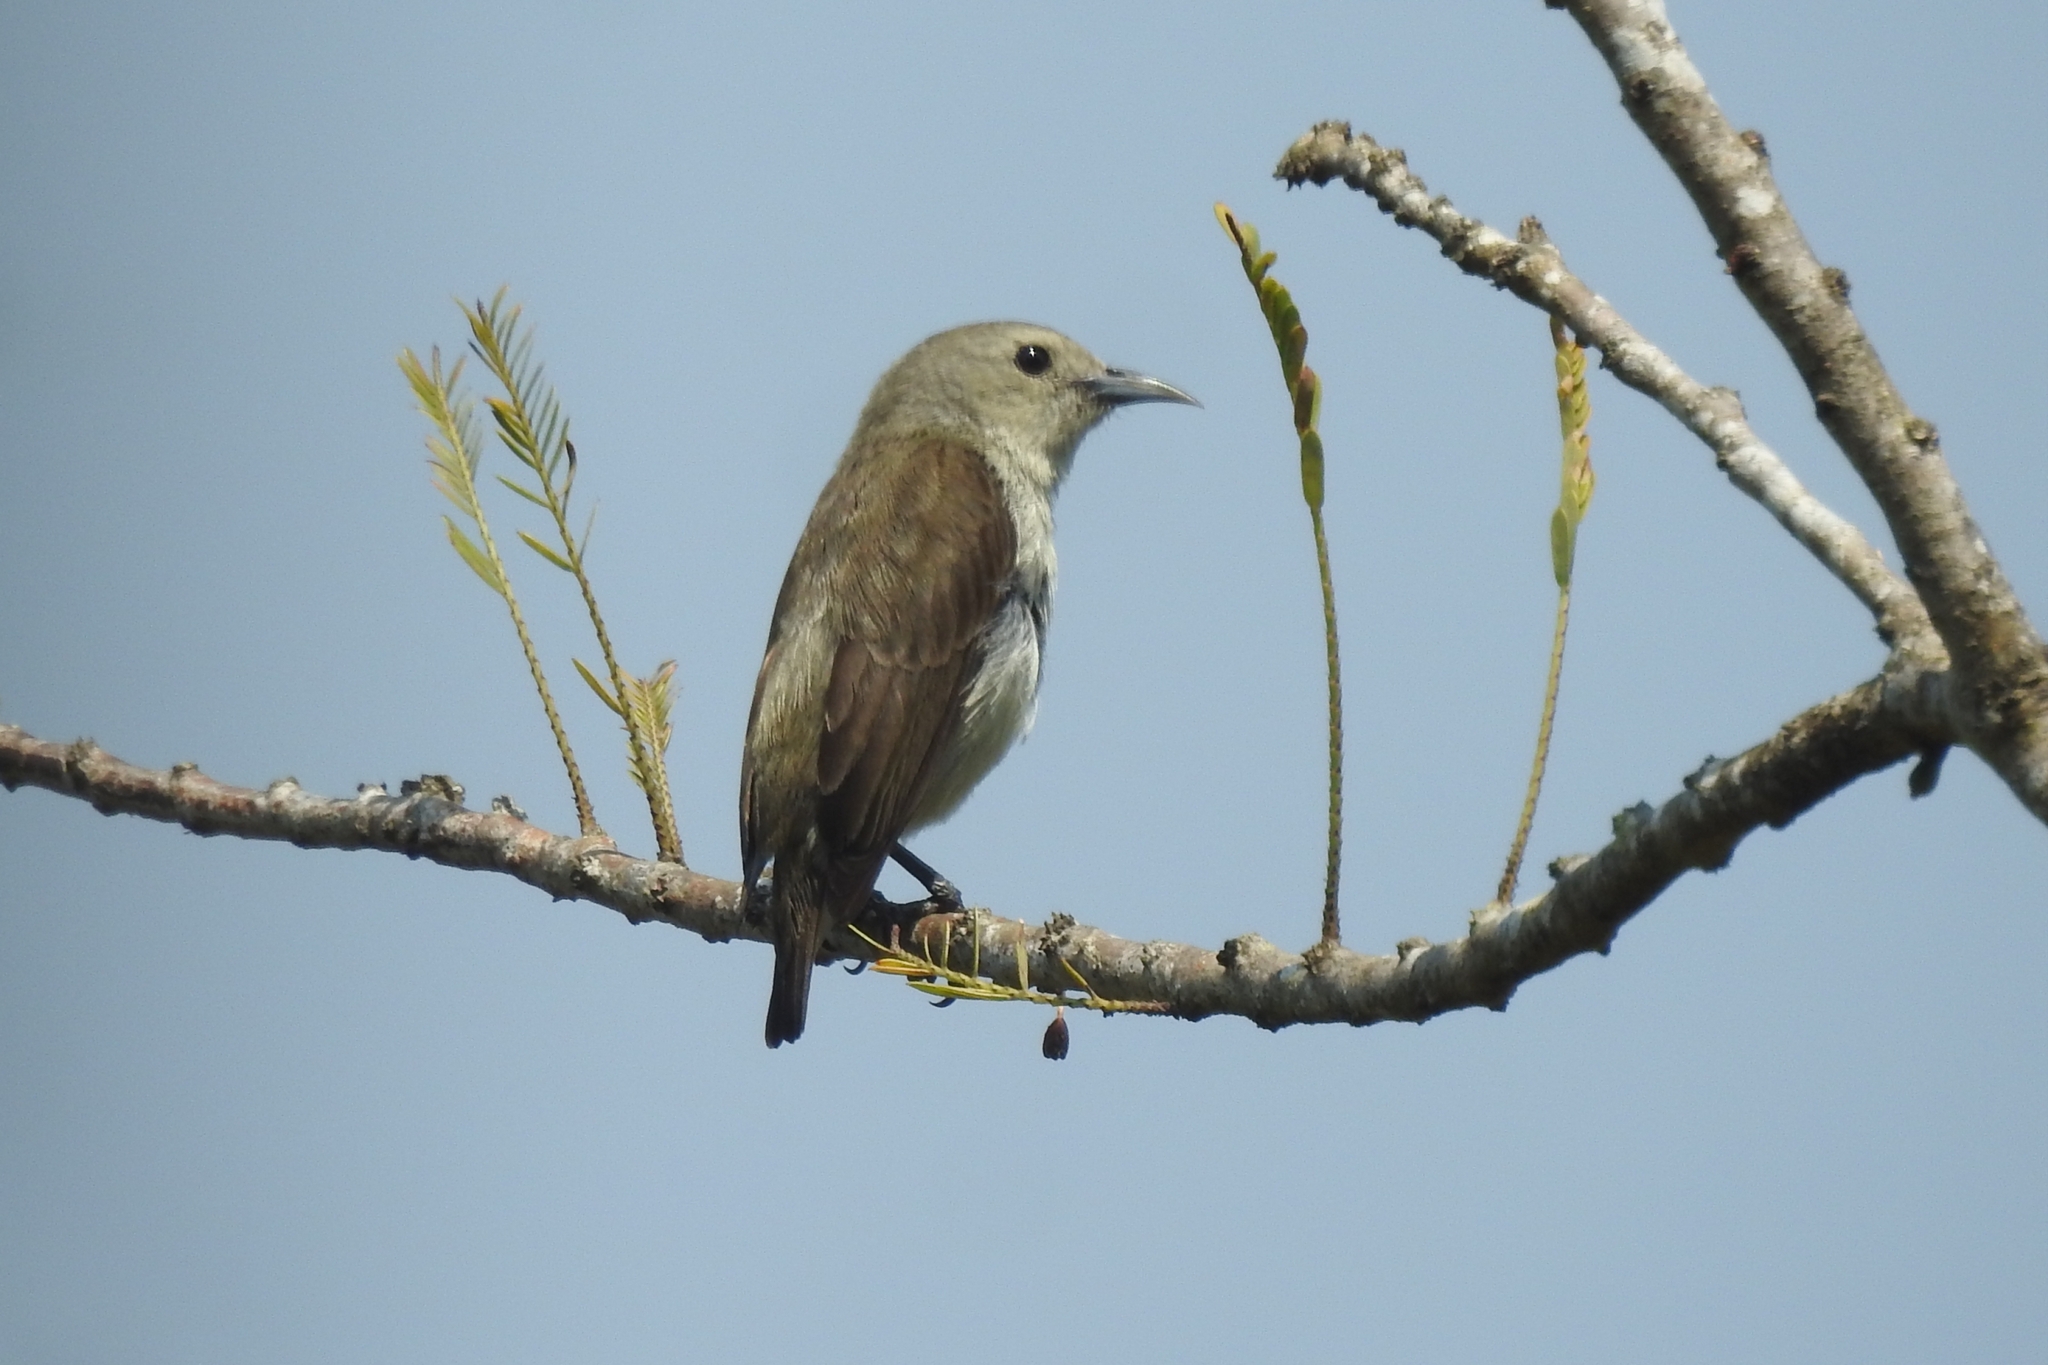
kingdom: Animalia
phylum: Chordata
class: Aves
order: Passeriformes
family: Dicaeidae
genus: Dicaeum
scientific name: Dicaeum concolor
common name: Nilgiri flowerpecker
